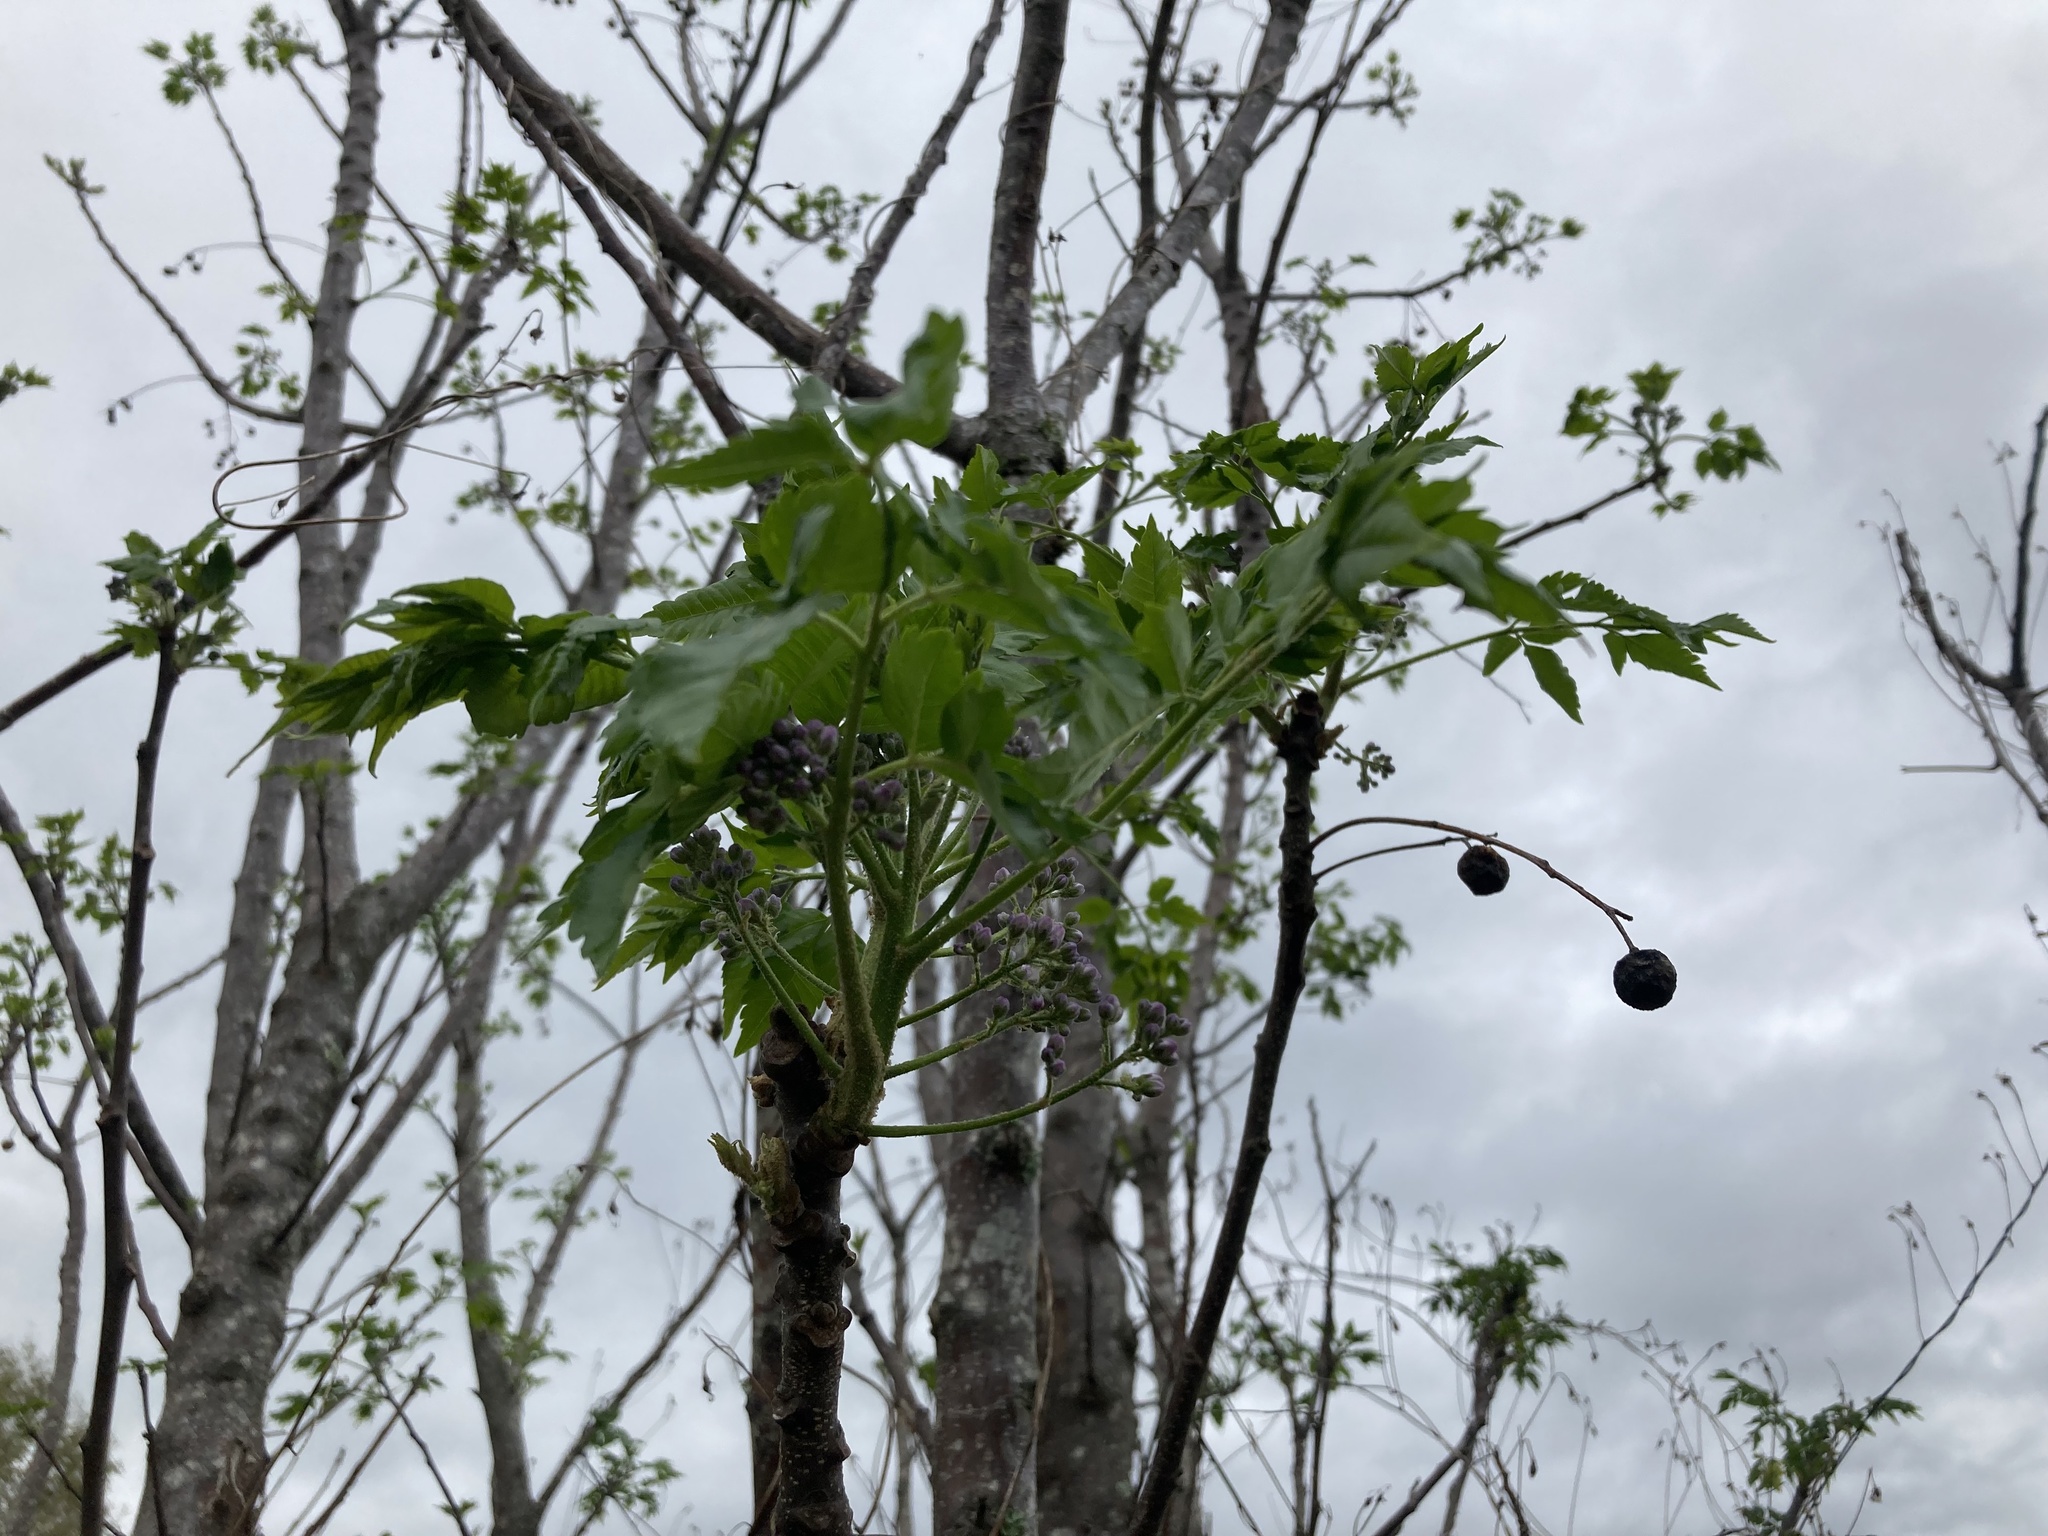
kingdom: Plantae
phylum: Tracheophyta
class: Magnoliopsida
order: Sapindales
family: Meliaceae
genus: Melia
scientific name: Melia azedarach
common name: Chinaberrytree
